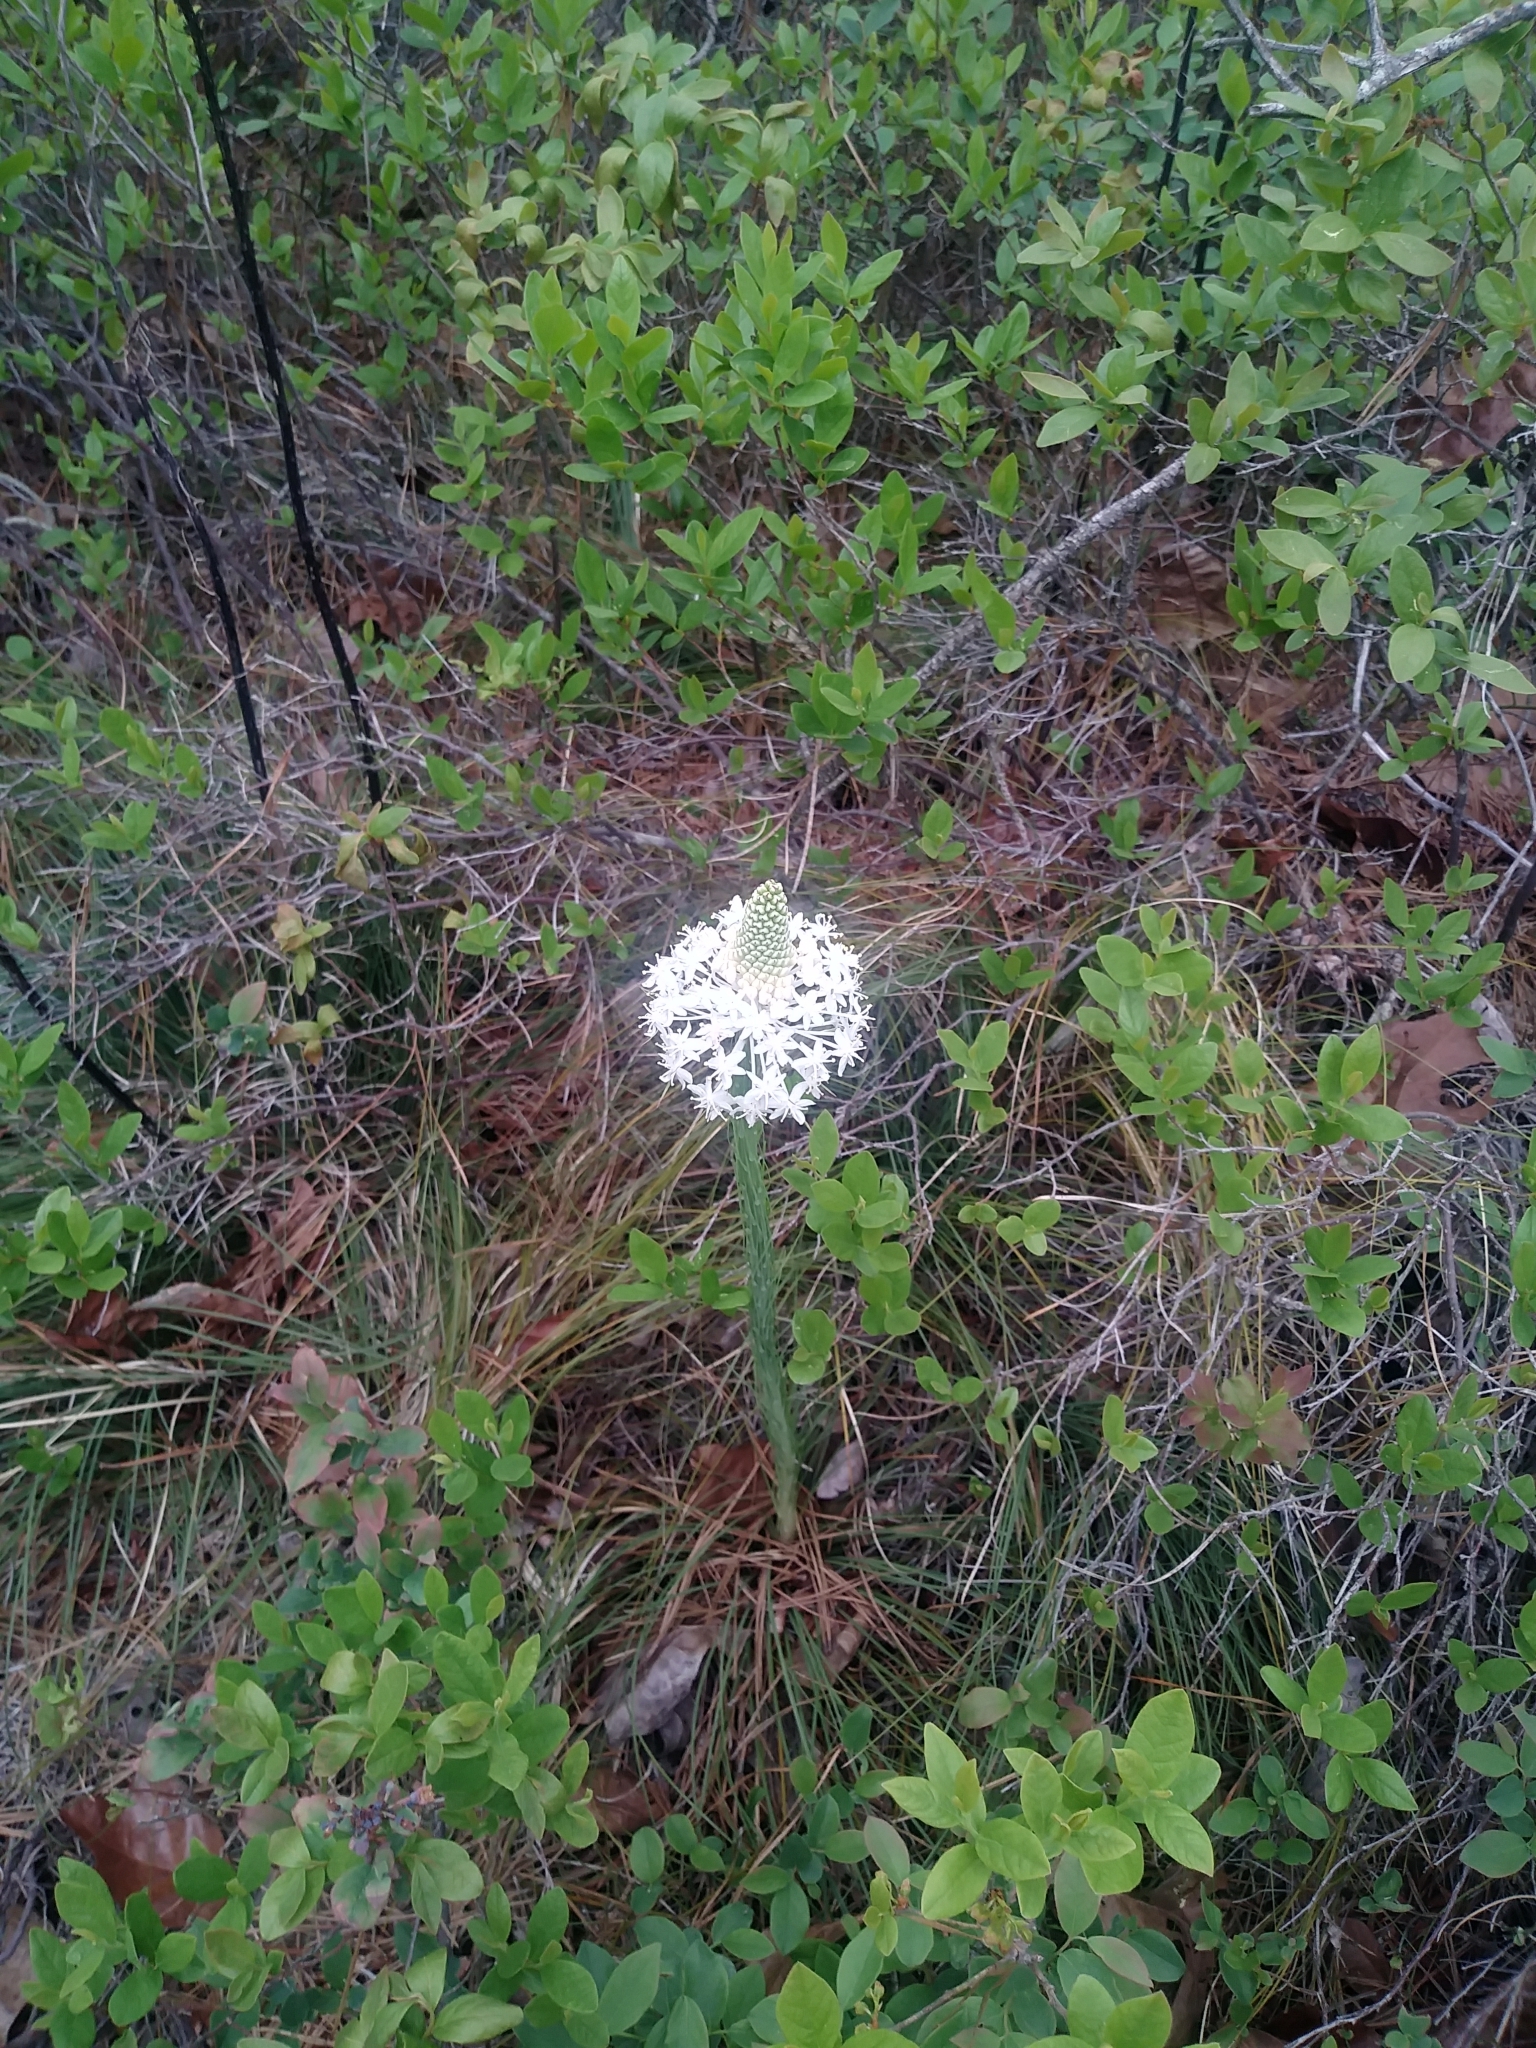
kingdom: Plantae
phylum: Tracheophyta
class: Liliopsida
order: Liliales
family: Melanthiaceae
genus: Xerophyllum
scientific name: Xerophyllum asphodeloides
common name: Mountain-asphodel
